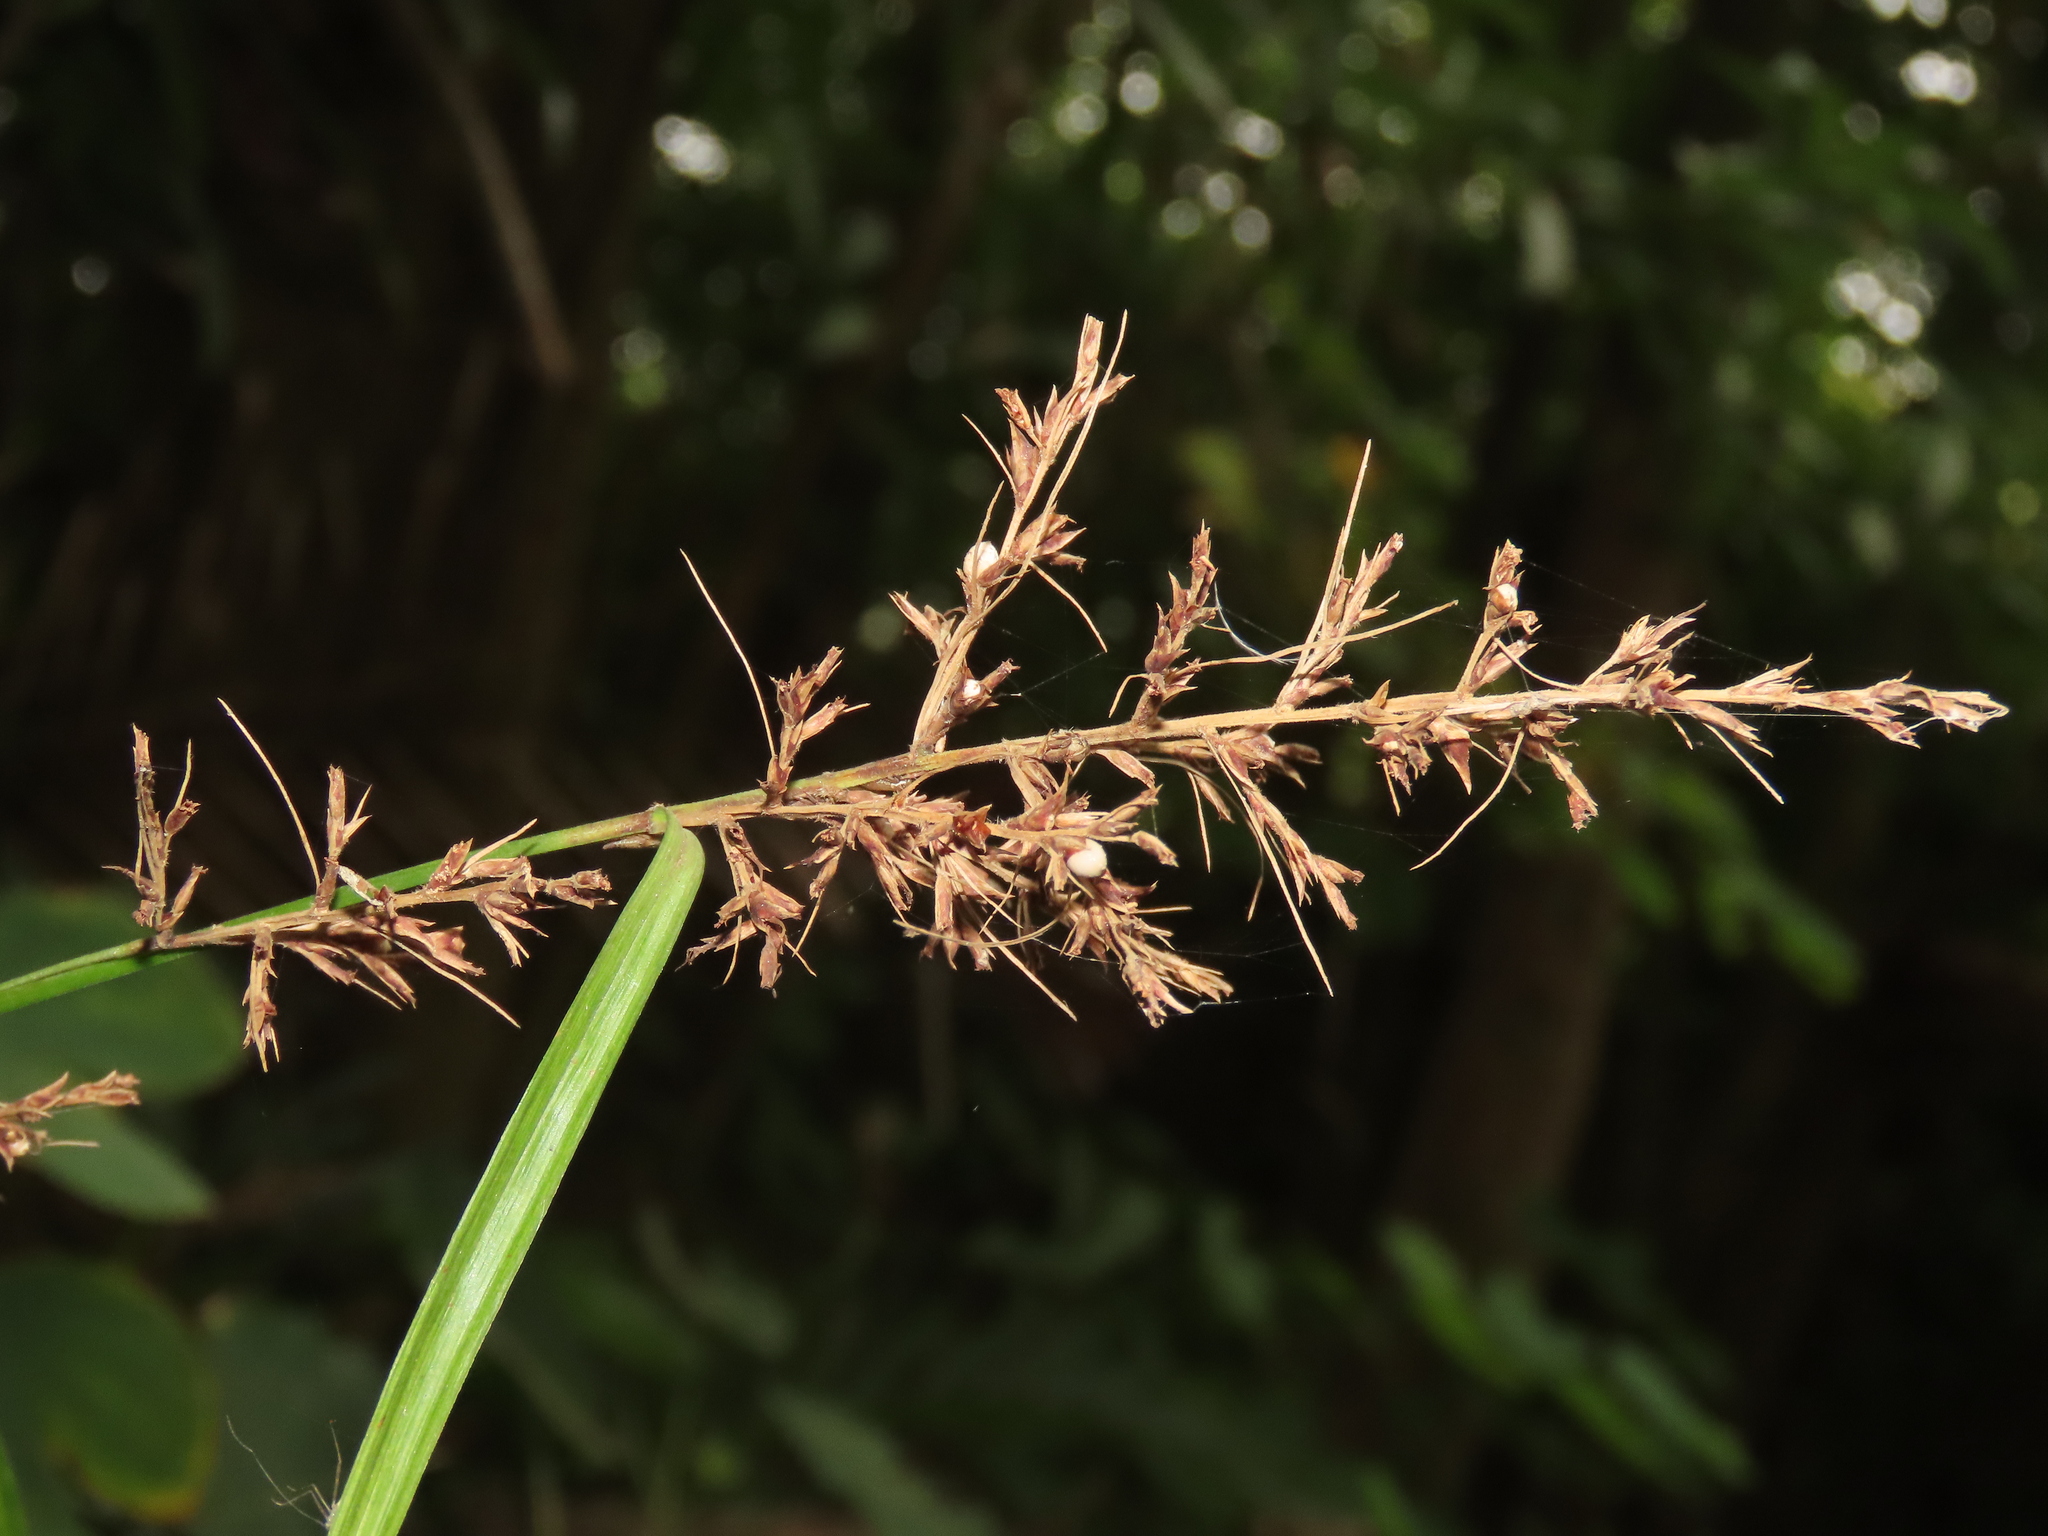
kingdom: Plantae
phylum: Tracheophyta
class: Liliopsida
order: Poales
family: Cyperaceae
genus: Scleria
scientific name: Scleria terrestris
